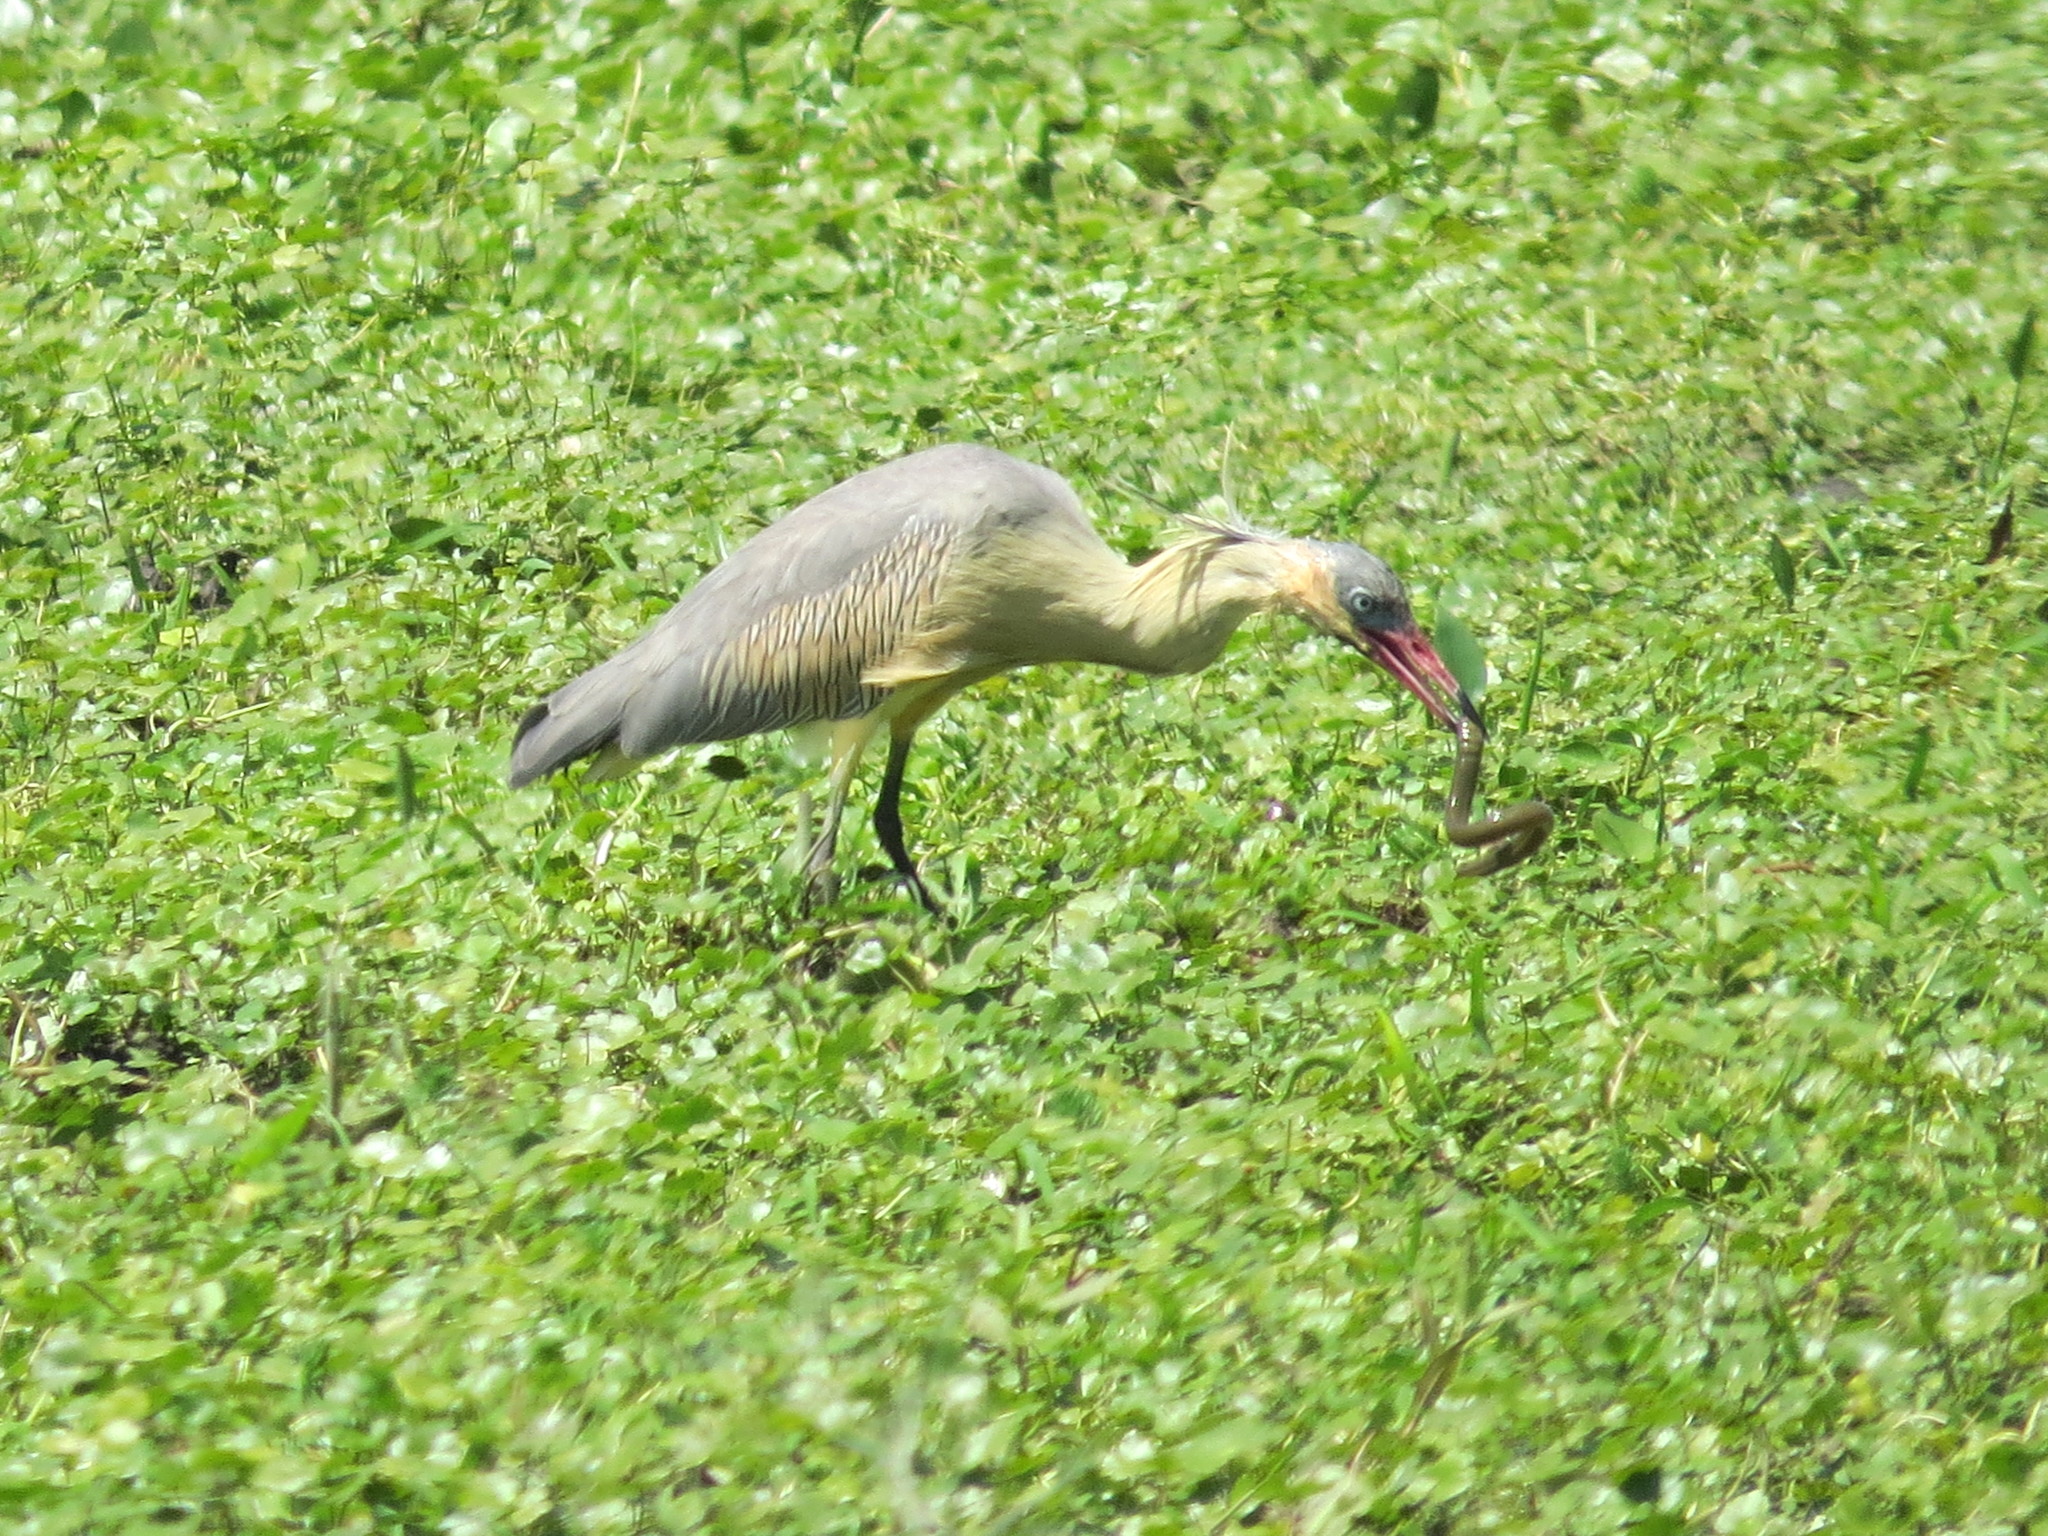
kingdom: Animalia
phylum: Chordata
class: Aves
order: Pelecaniformes
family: Ardeidae
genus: Syrigma
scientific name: Syrigma sibilatrix
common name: Whistling heron
